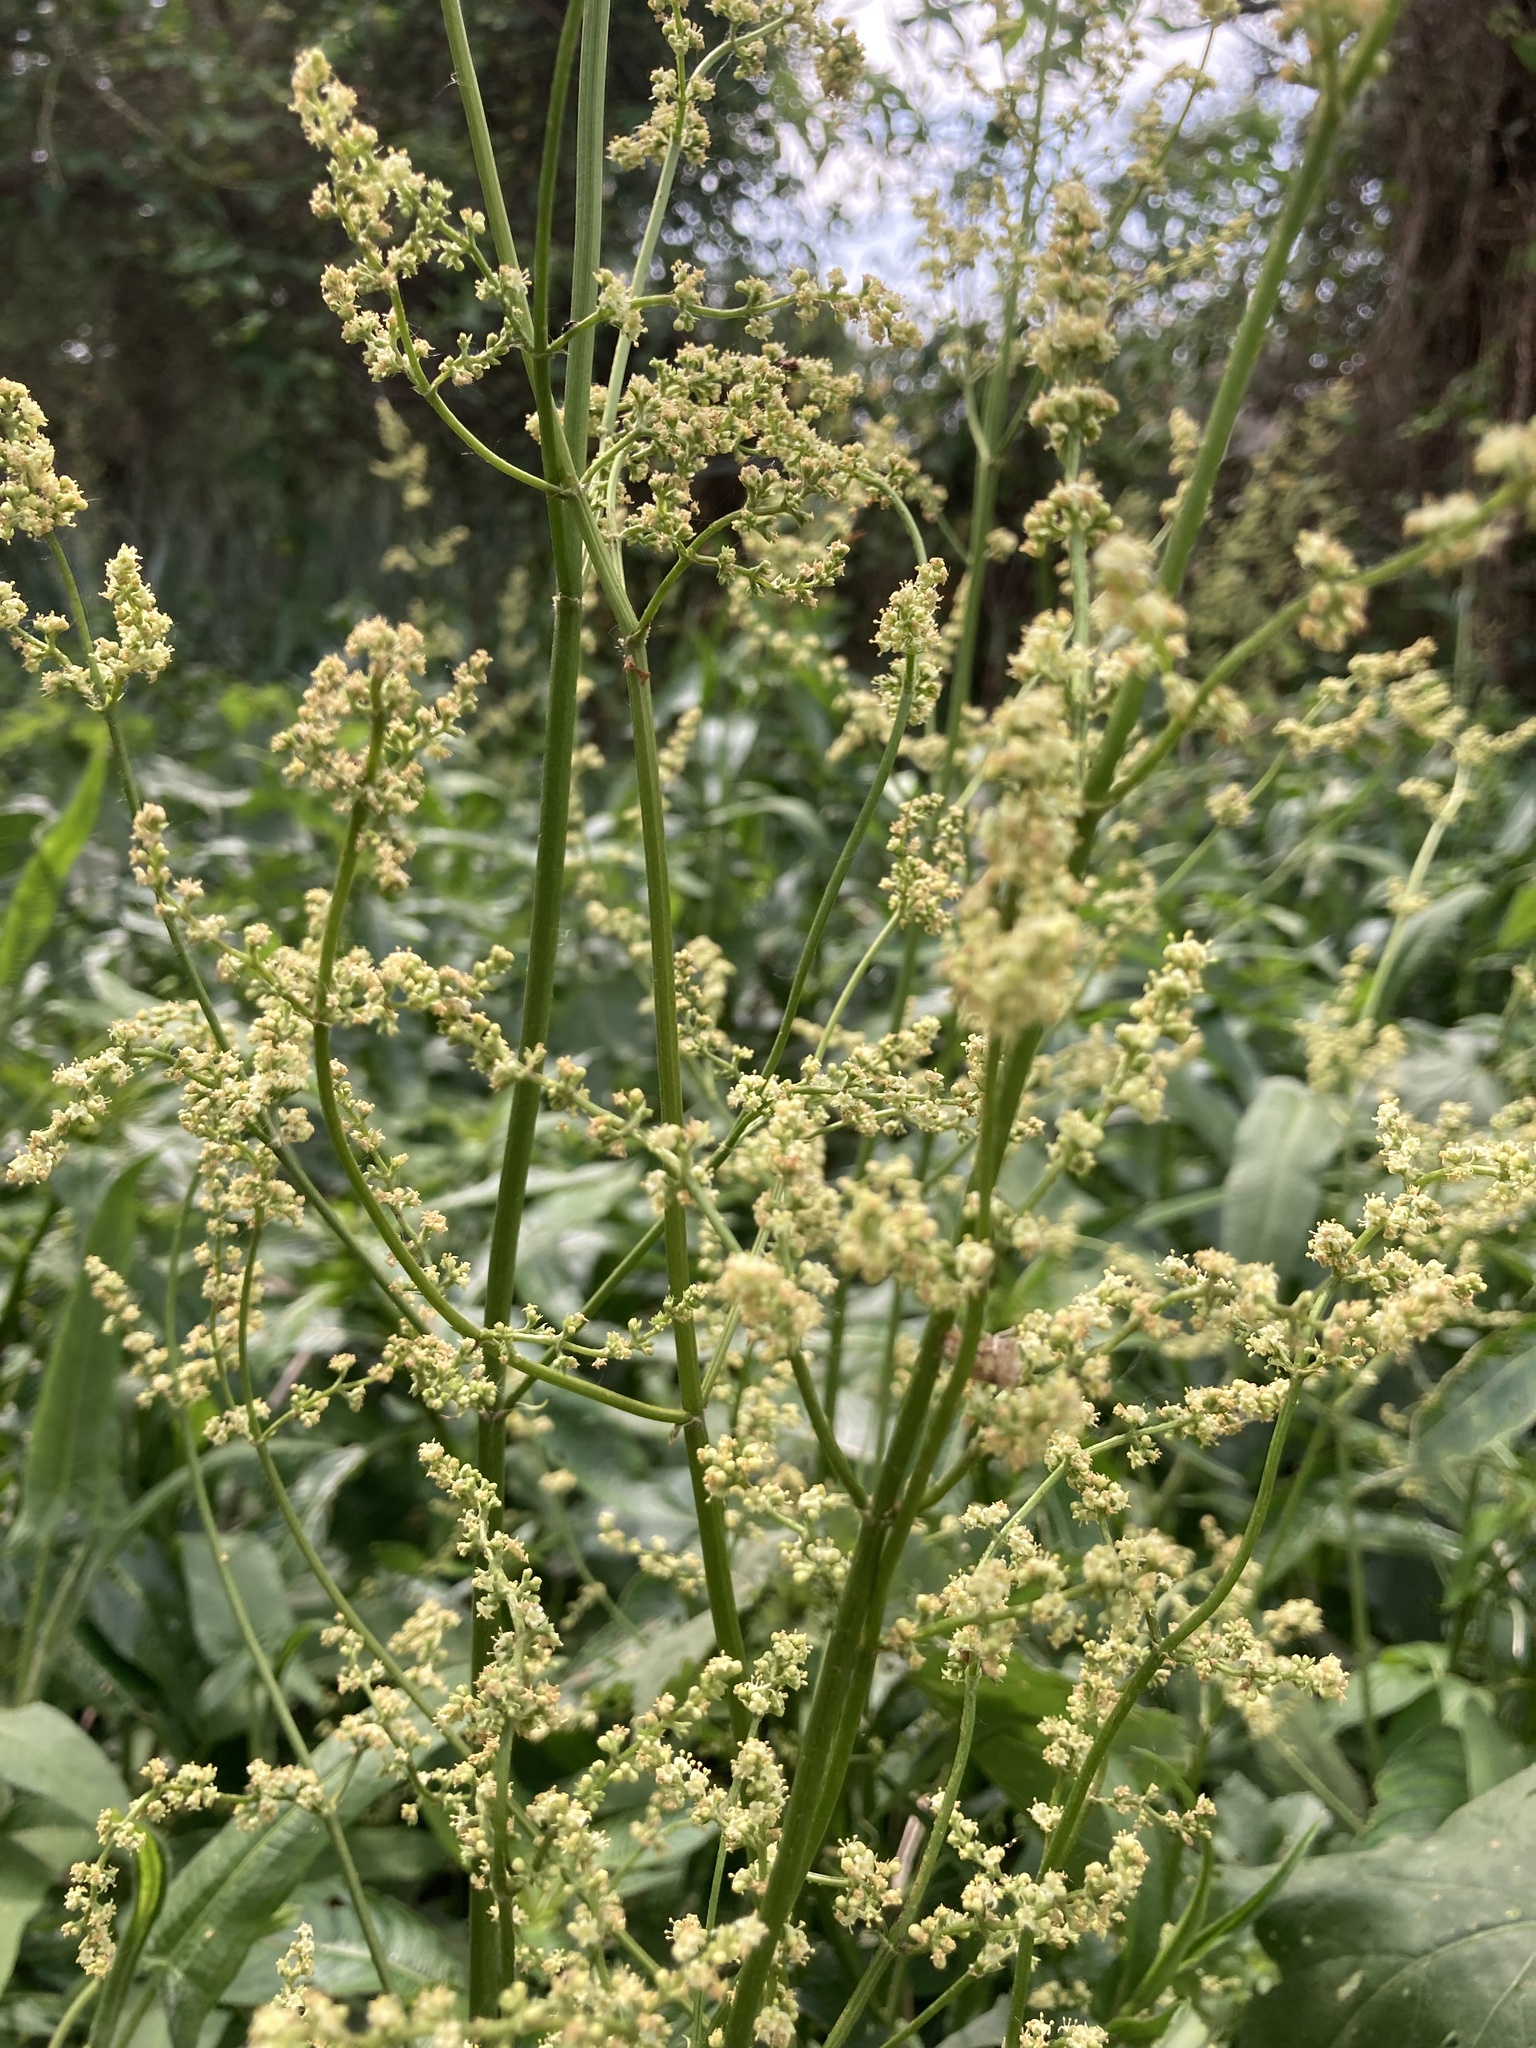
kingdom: Plantae
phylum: Tracheophyta
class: Magnoliopsida
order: Dipsacales
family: Caprifoliaceae
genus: Valeriana
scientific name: Valeriana salicariifolia
